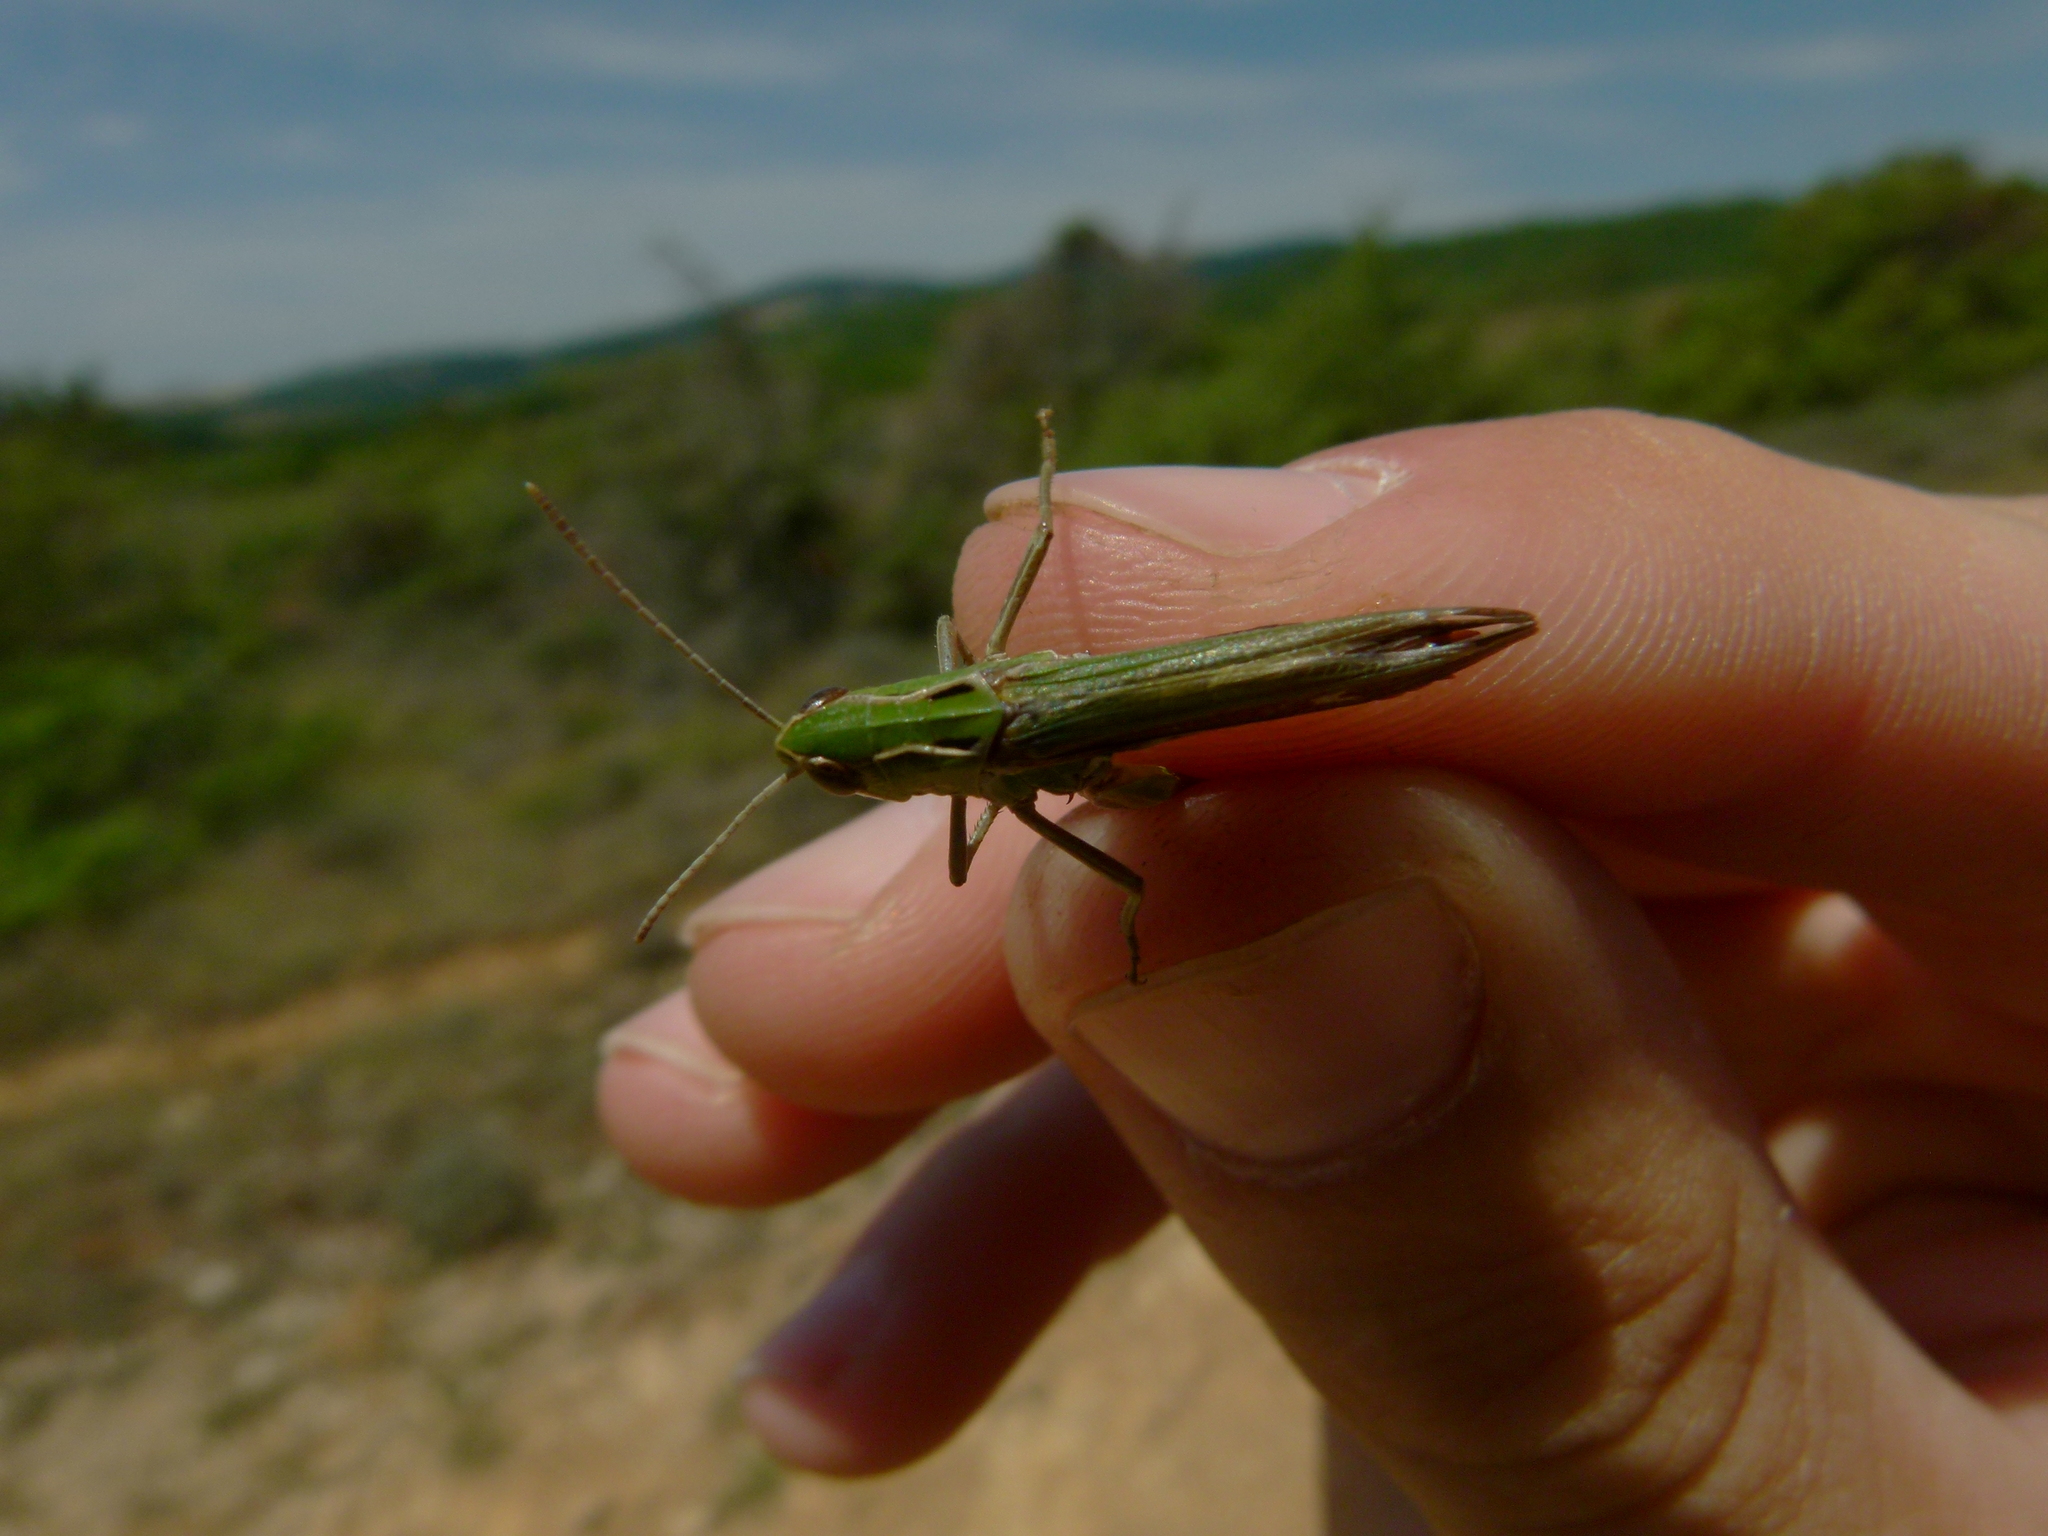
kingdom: Animalia
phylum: Arthropoda
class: Insecta
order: Orthoptera
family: Acrididae
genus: Stenobothrus
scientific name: Stenobothrus lineatus
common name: Stripe-winged grasshopper
